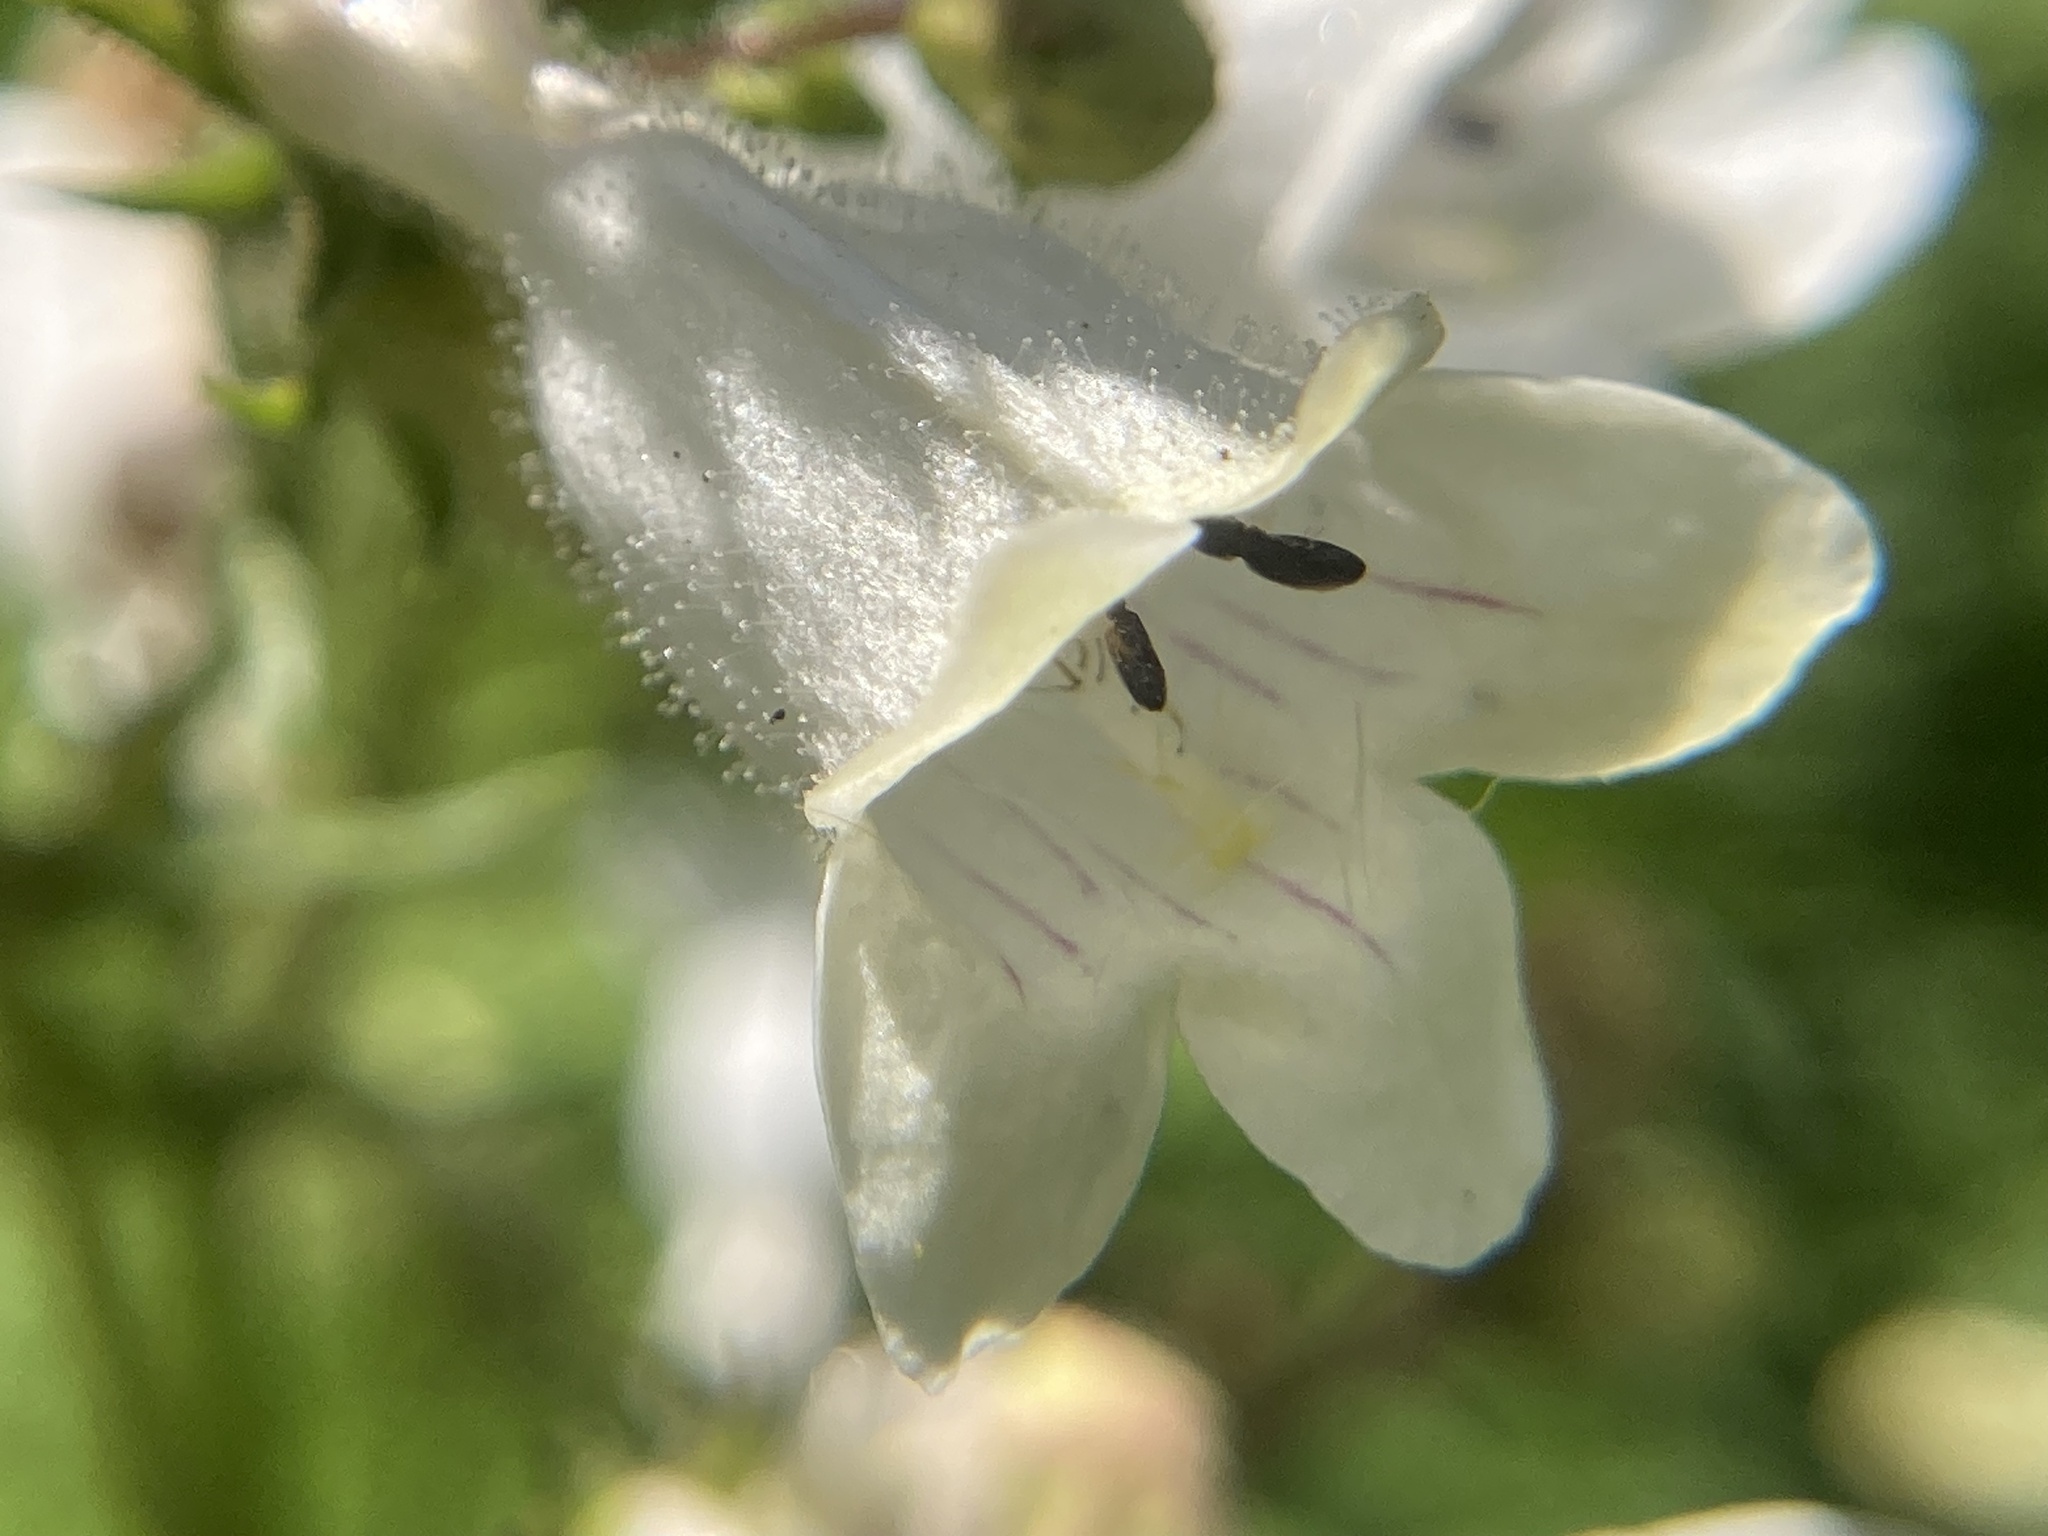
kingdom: Plantae
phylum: Tracheophyta
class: Magnoliopsida
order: Lamiales
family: Plantaginaceae
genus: Penstemon
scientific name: Penstemon pallidus
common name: Pale beardtongue
